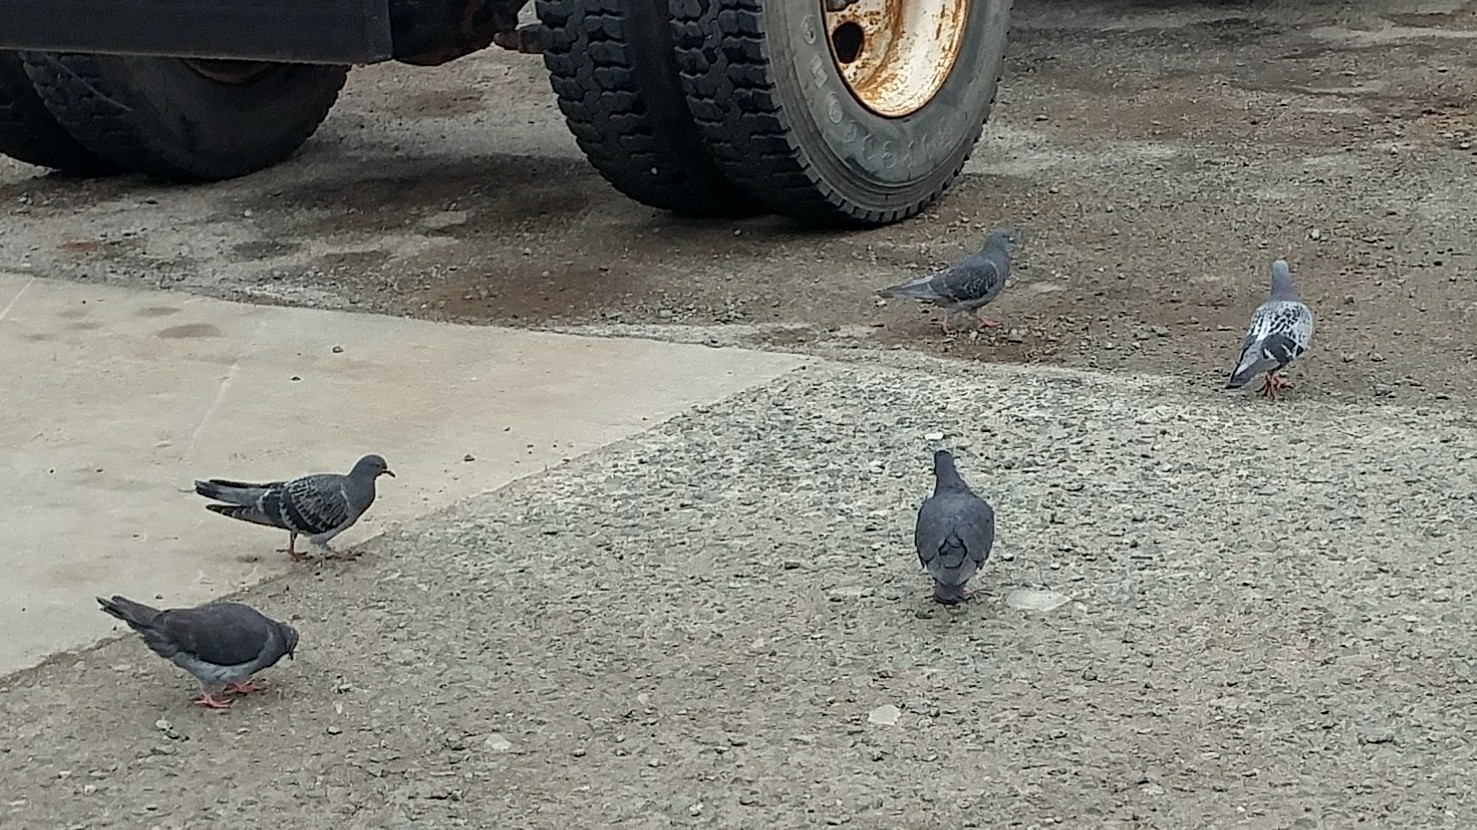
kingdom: Animalia
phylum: Chordata
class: Aves
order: Columbiformes
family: Columbidae
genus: Columba
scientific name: Columba livia
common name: Rock pigeon
